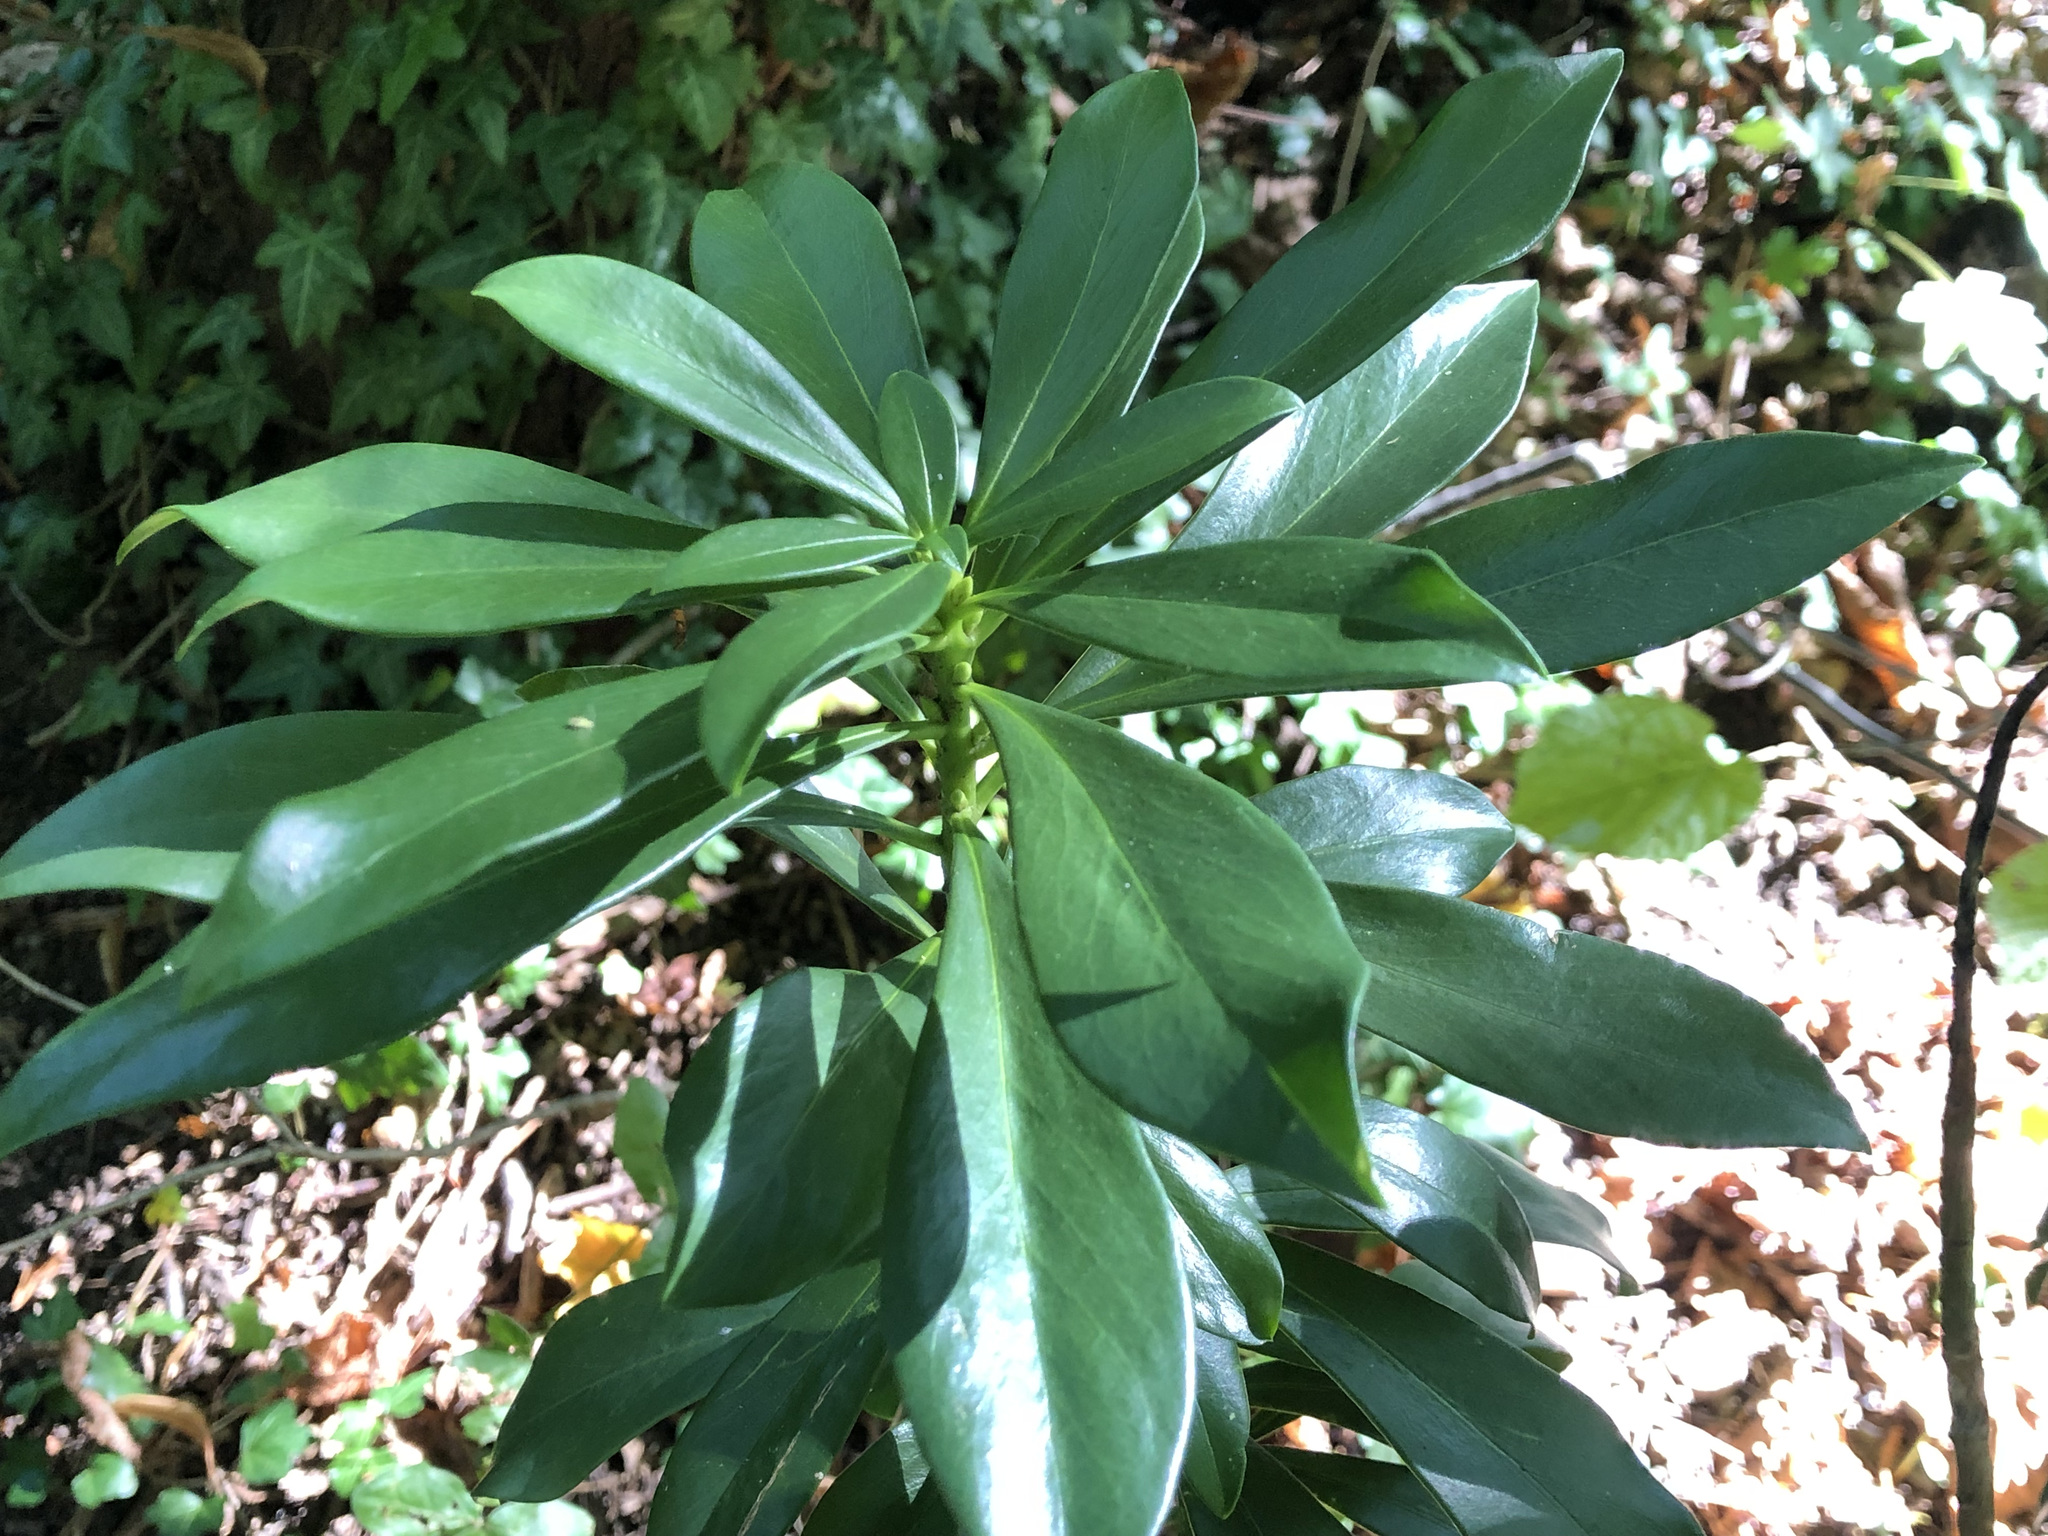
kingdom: Plantae
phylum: Tracheophyta
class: Magnoliopsida
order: Malvales
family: Thymelaeaceae
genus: Daphne
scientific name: Daphne laureola
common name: Spurge-laurel
